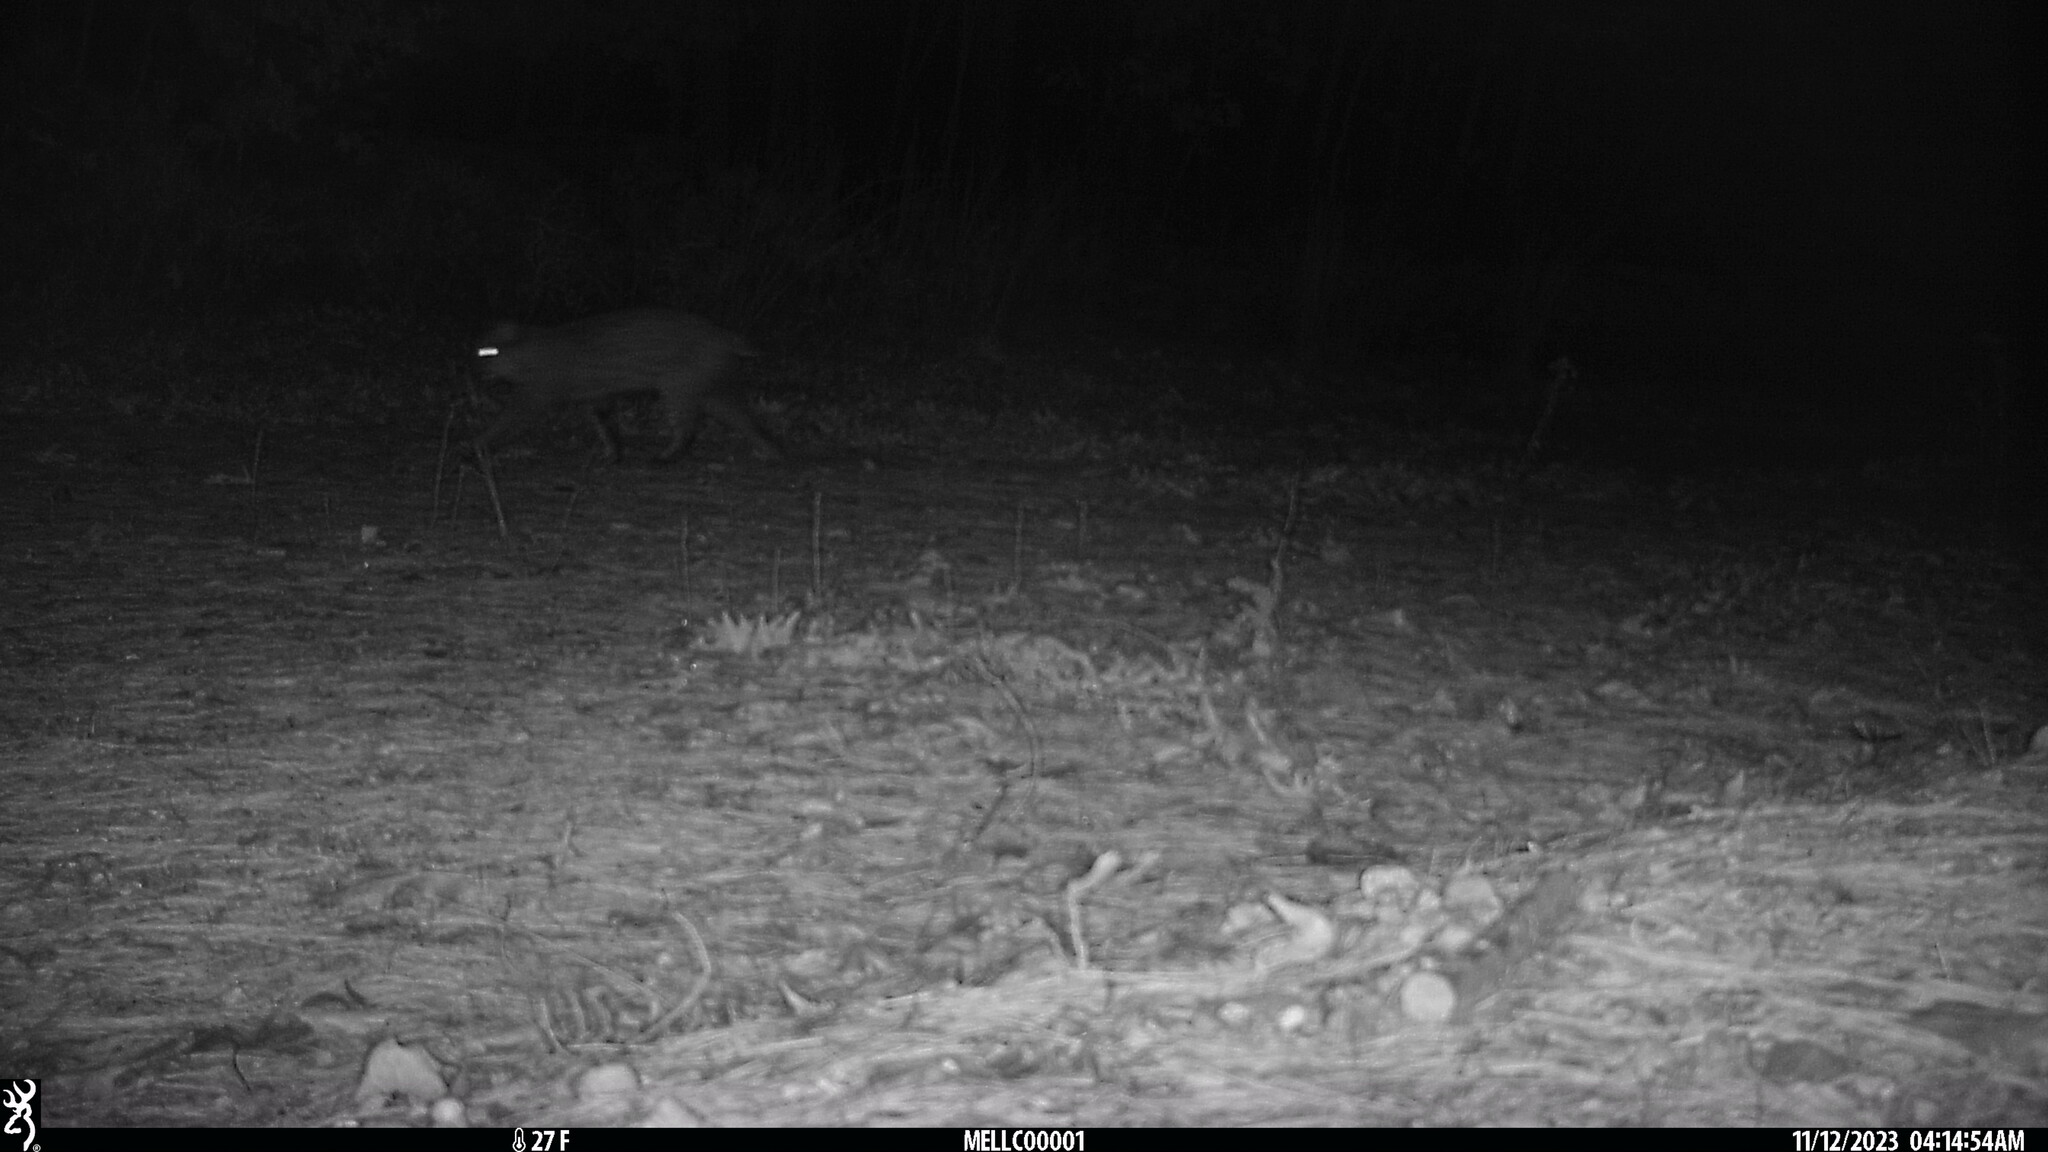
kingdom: Animalia
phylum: Chordata
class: Mammalia
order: Carnivora
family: Felidae
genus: Lynx
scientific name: Lynx rufus
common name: Bobcat
